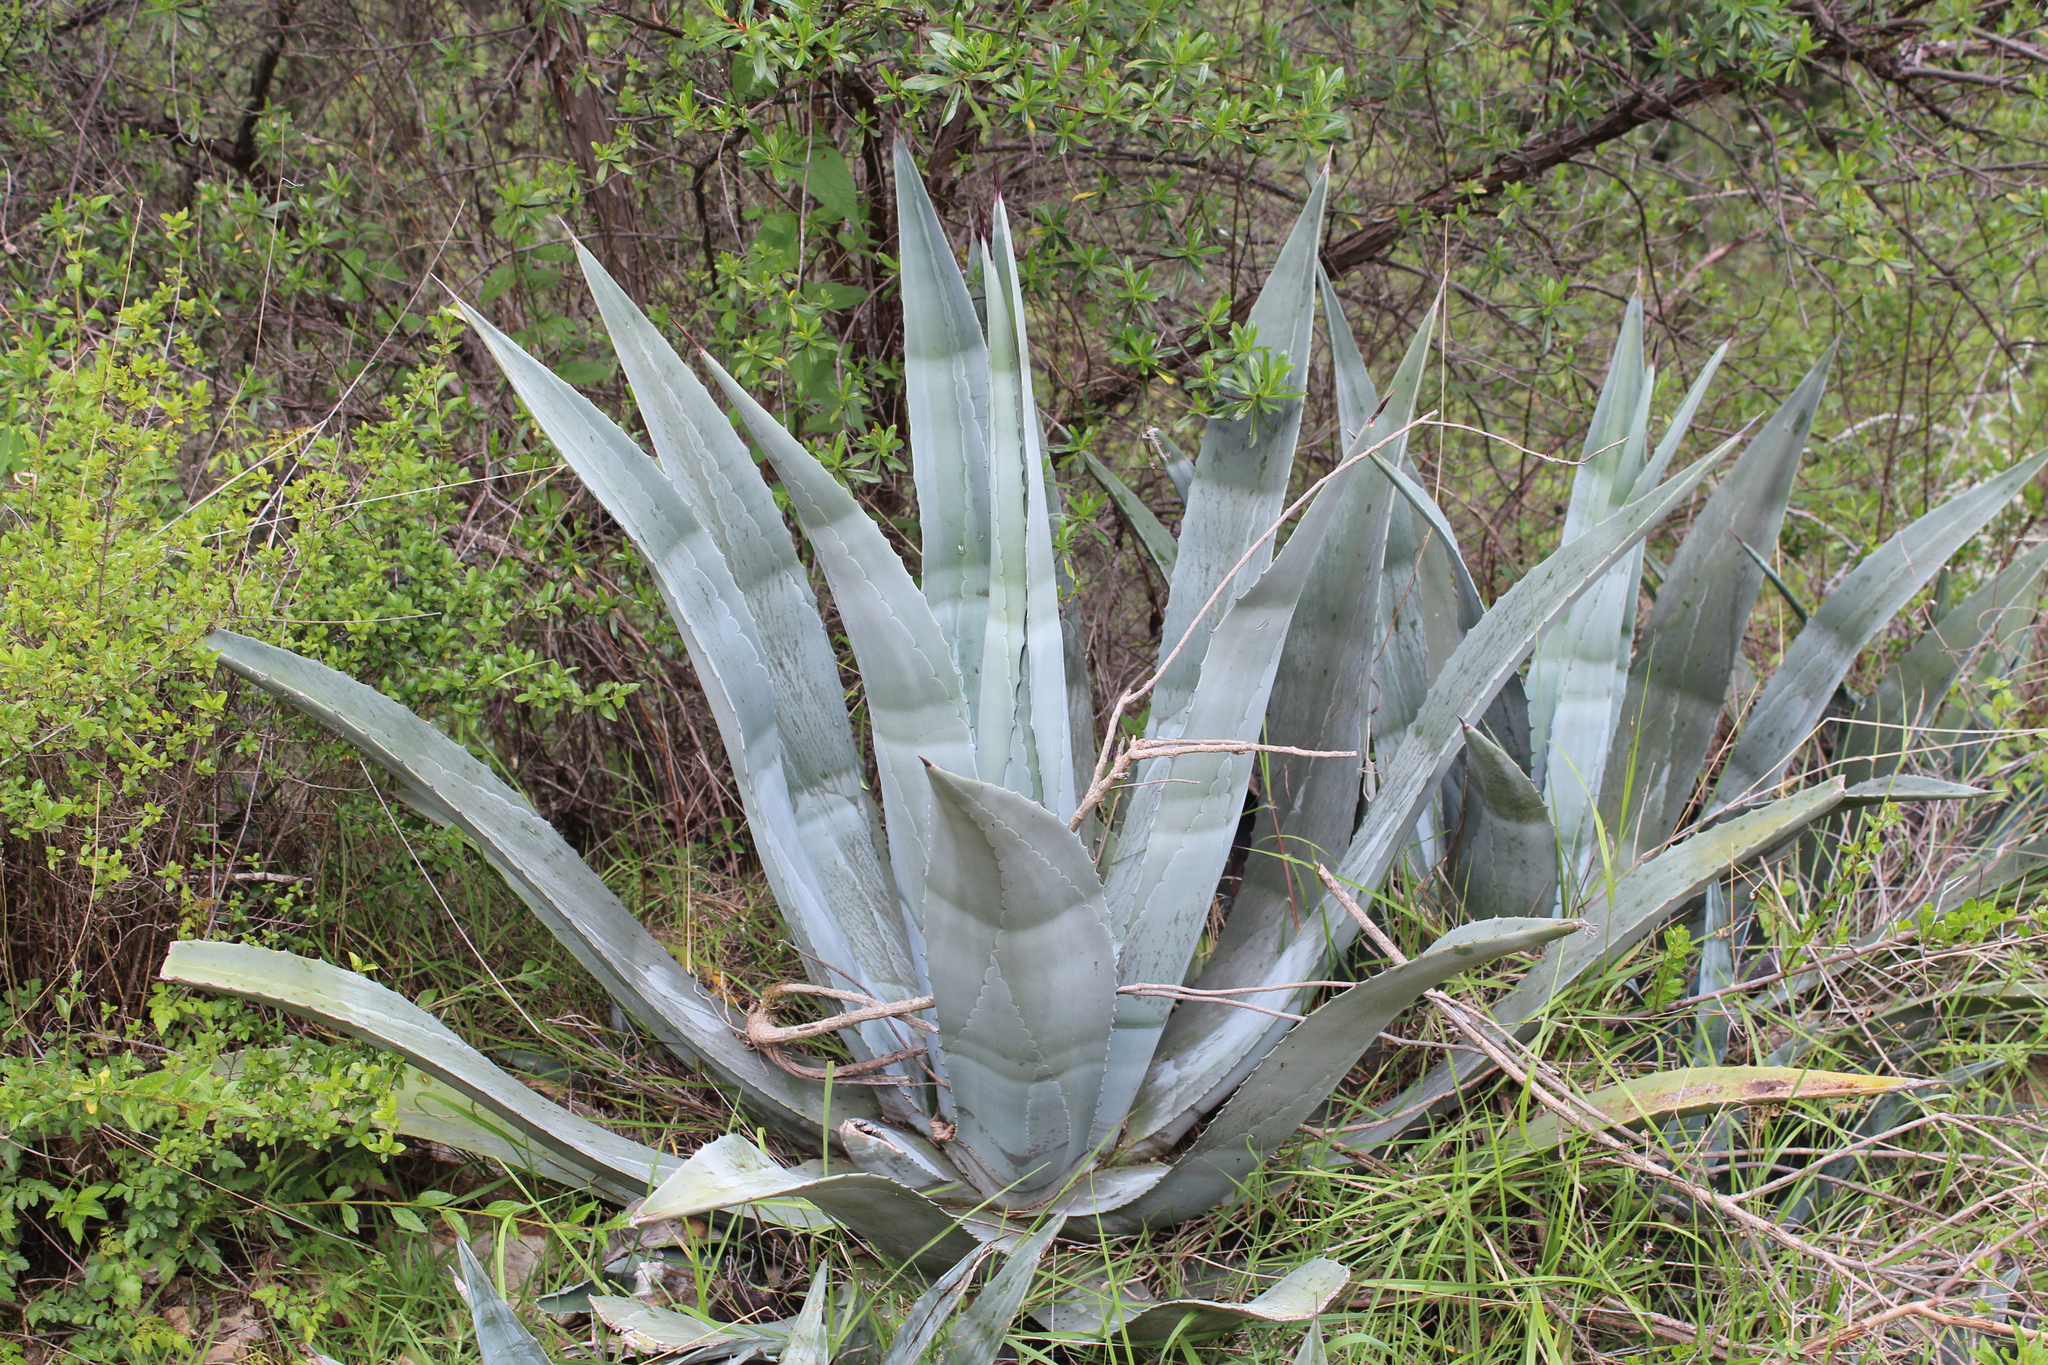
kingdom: Plantae
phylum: Tracheophyta
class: Liliopsida
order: Asparagales
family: Asparagaceae
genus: Agave
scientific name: Agave americana
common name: Centuryplant
